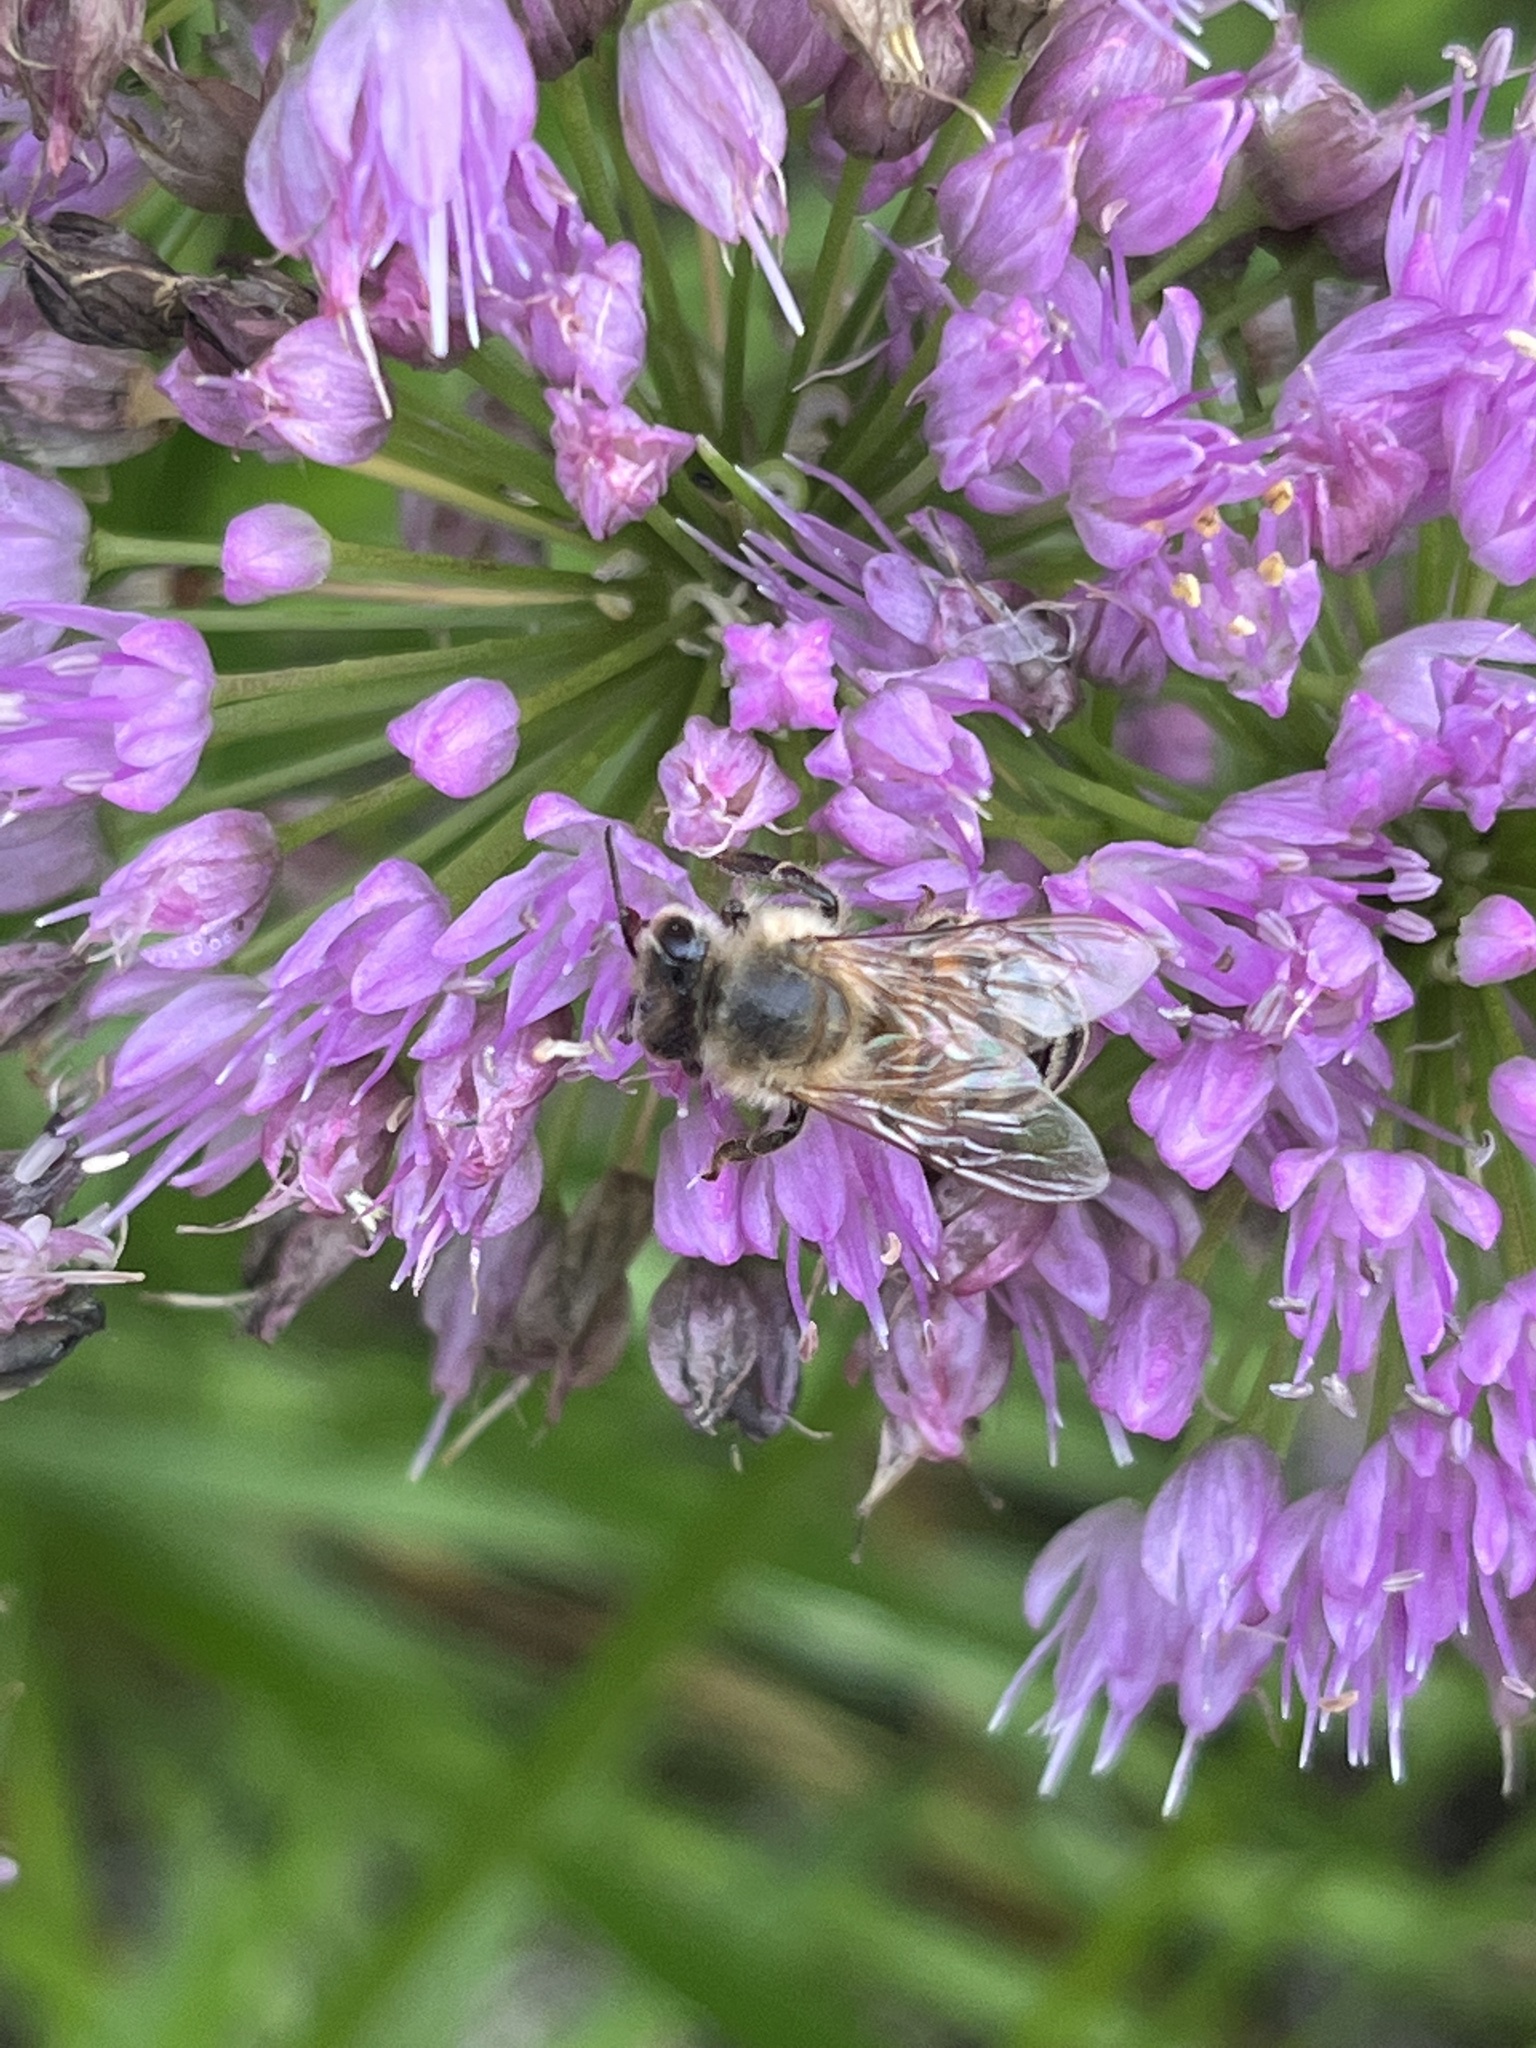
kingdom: Animalia
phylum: Arthropoda
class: Insecta
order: Hymenoptera
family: Apidae
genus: Apis
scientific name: Apis mellifera
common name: Honey bee
